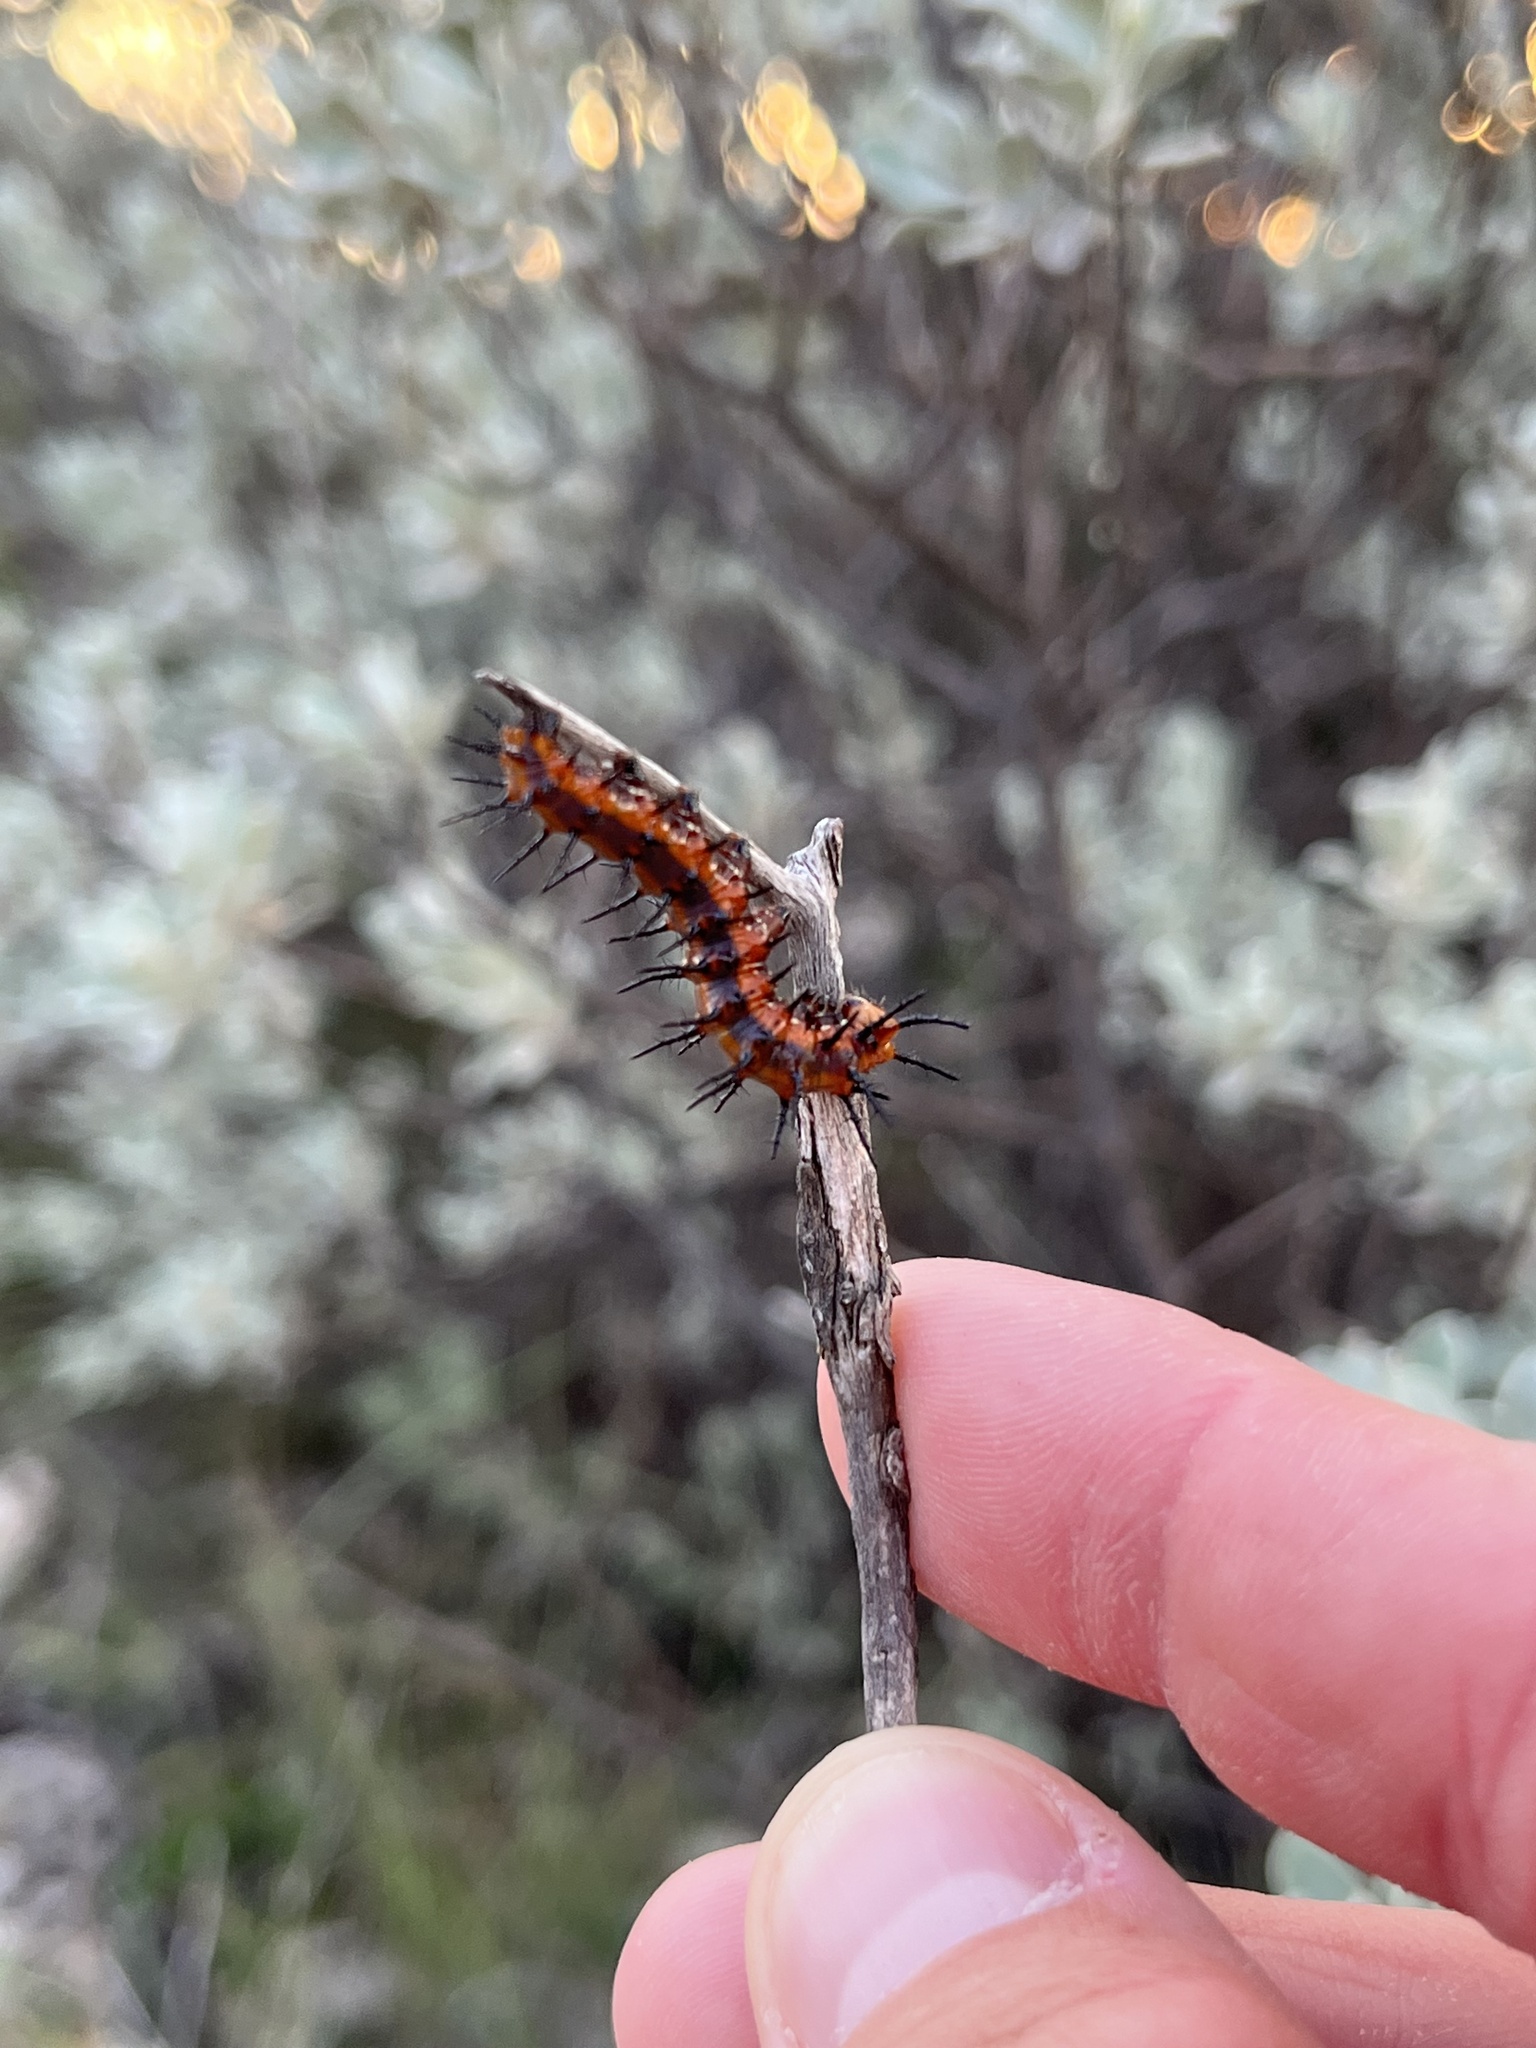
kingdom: Animalia
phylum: Arthropoda
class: Insecta
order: Lepidoptera
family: Nymphalidae
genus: Dione
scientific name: Dione vanillae
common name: Gulf fritillary
